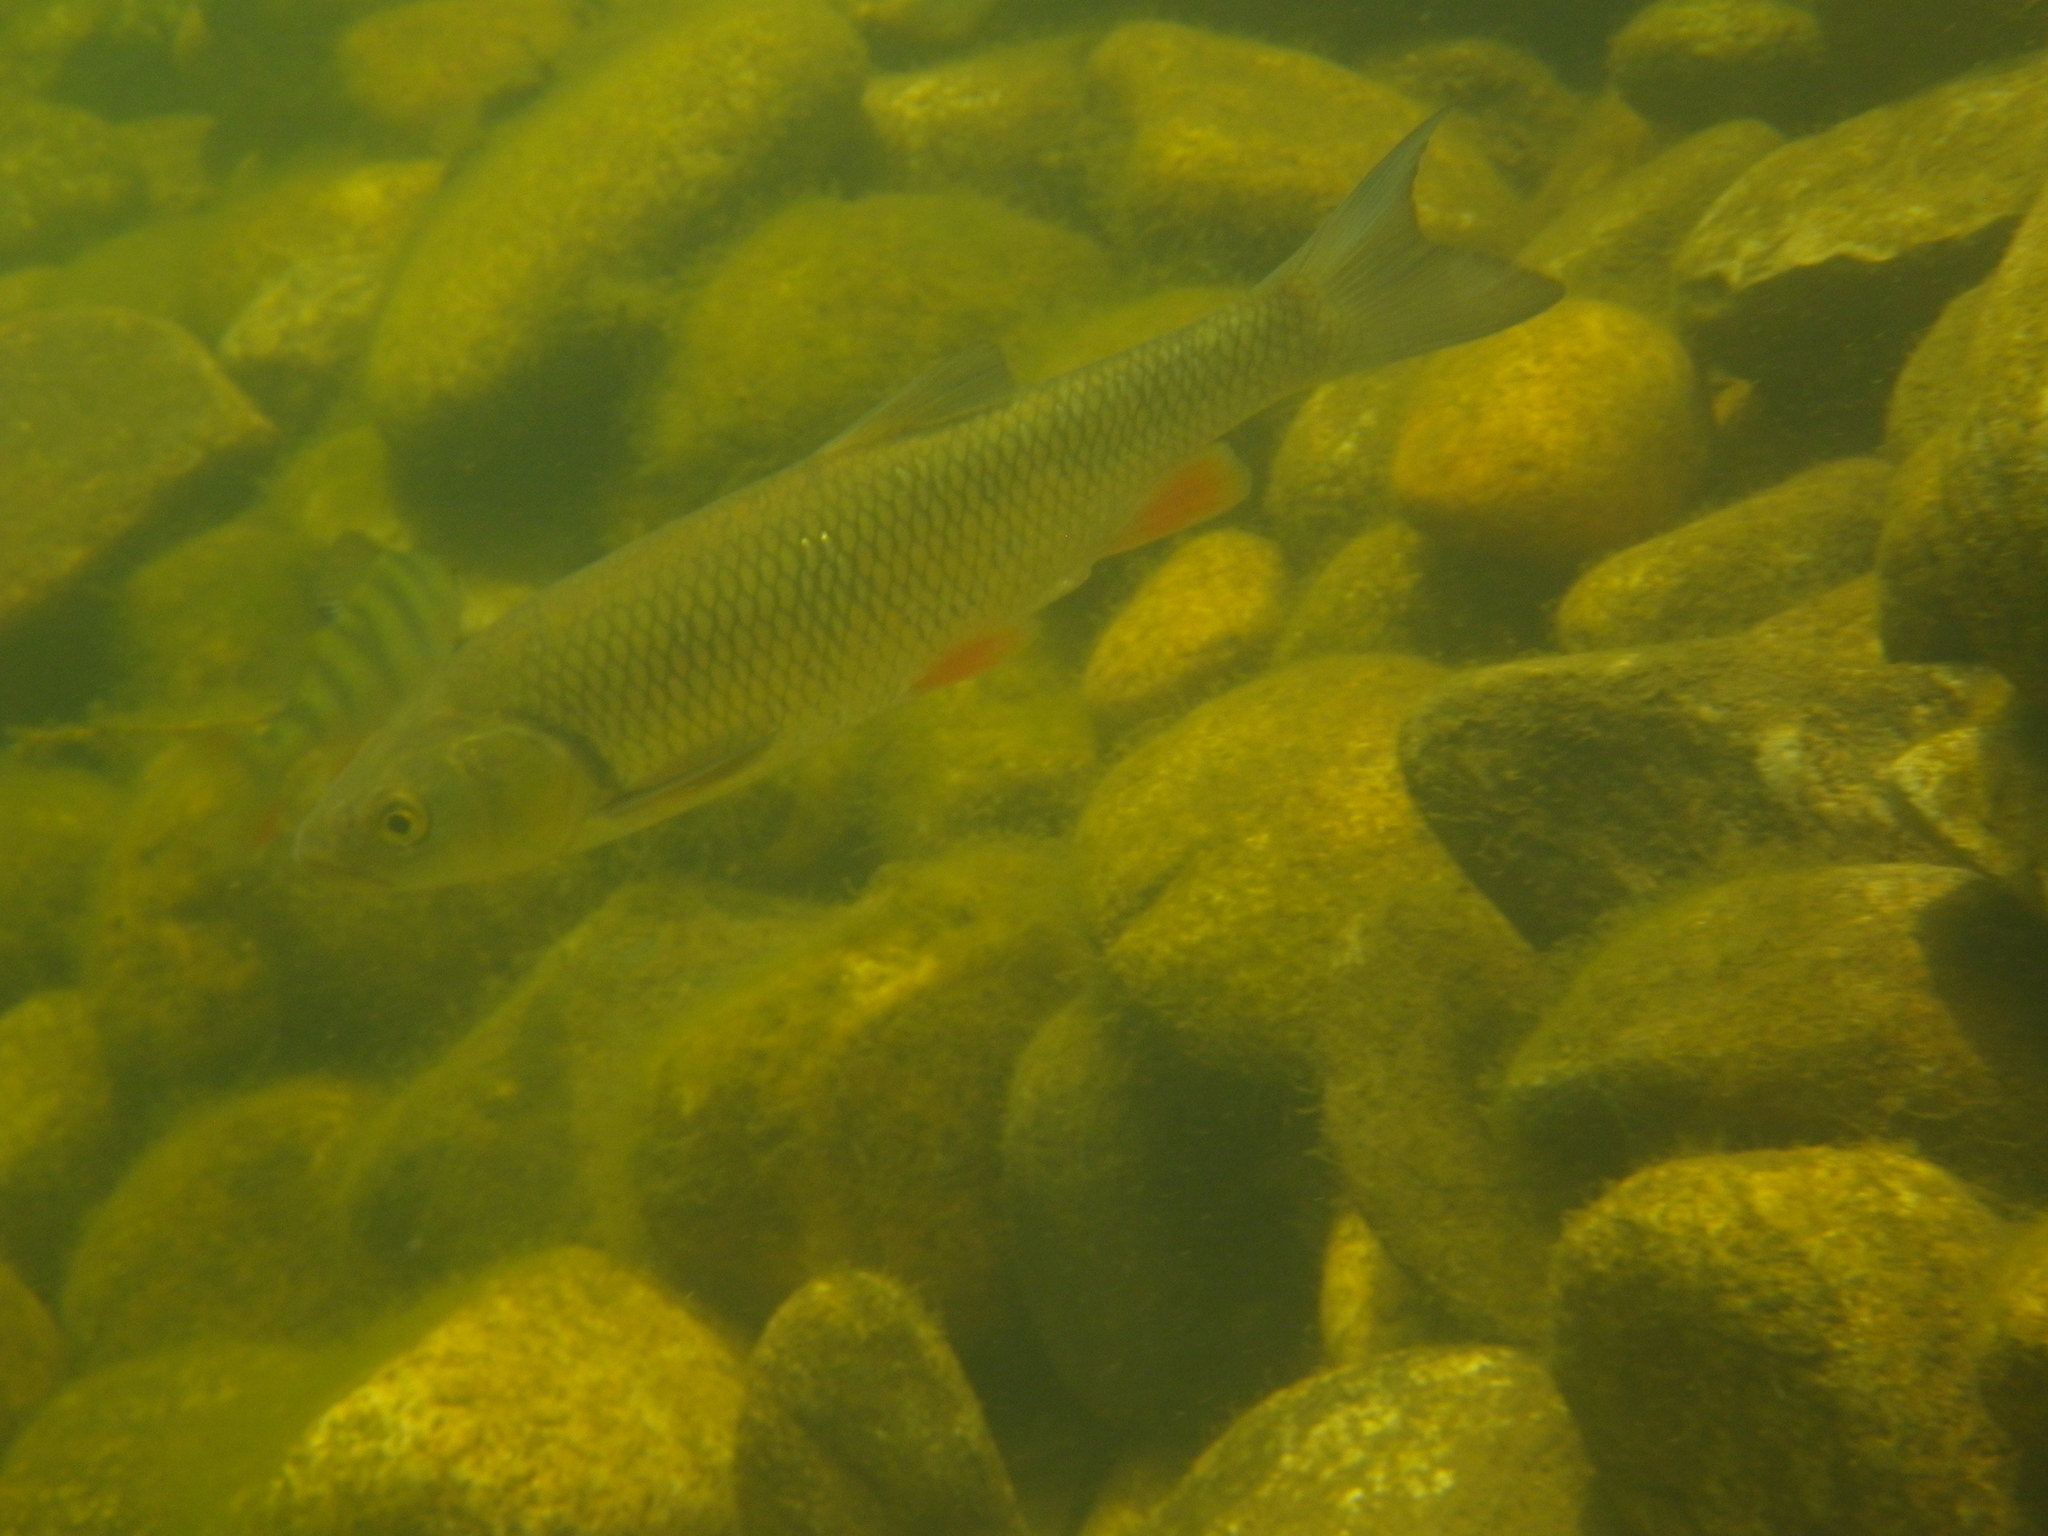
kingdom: Animalia
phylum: Chordata
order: Cypriniformes
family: Cyprinidae
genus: Squalius
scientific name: Squalius cephalus
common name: Chub
